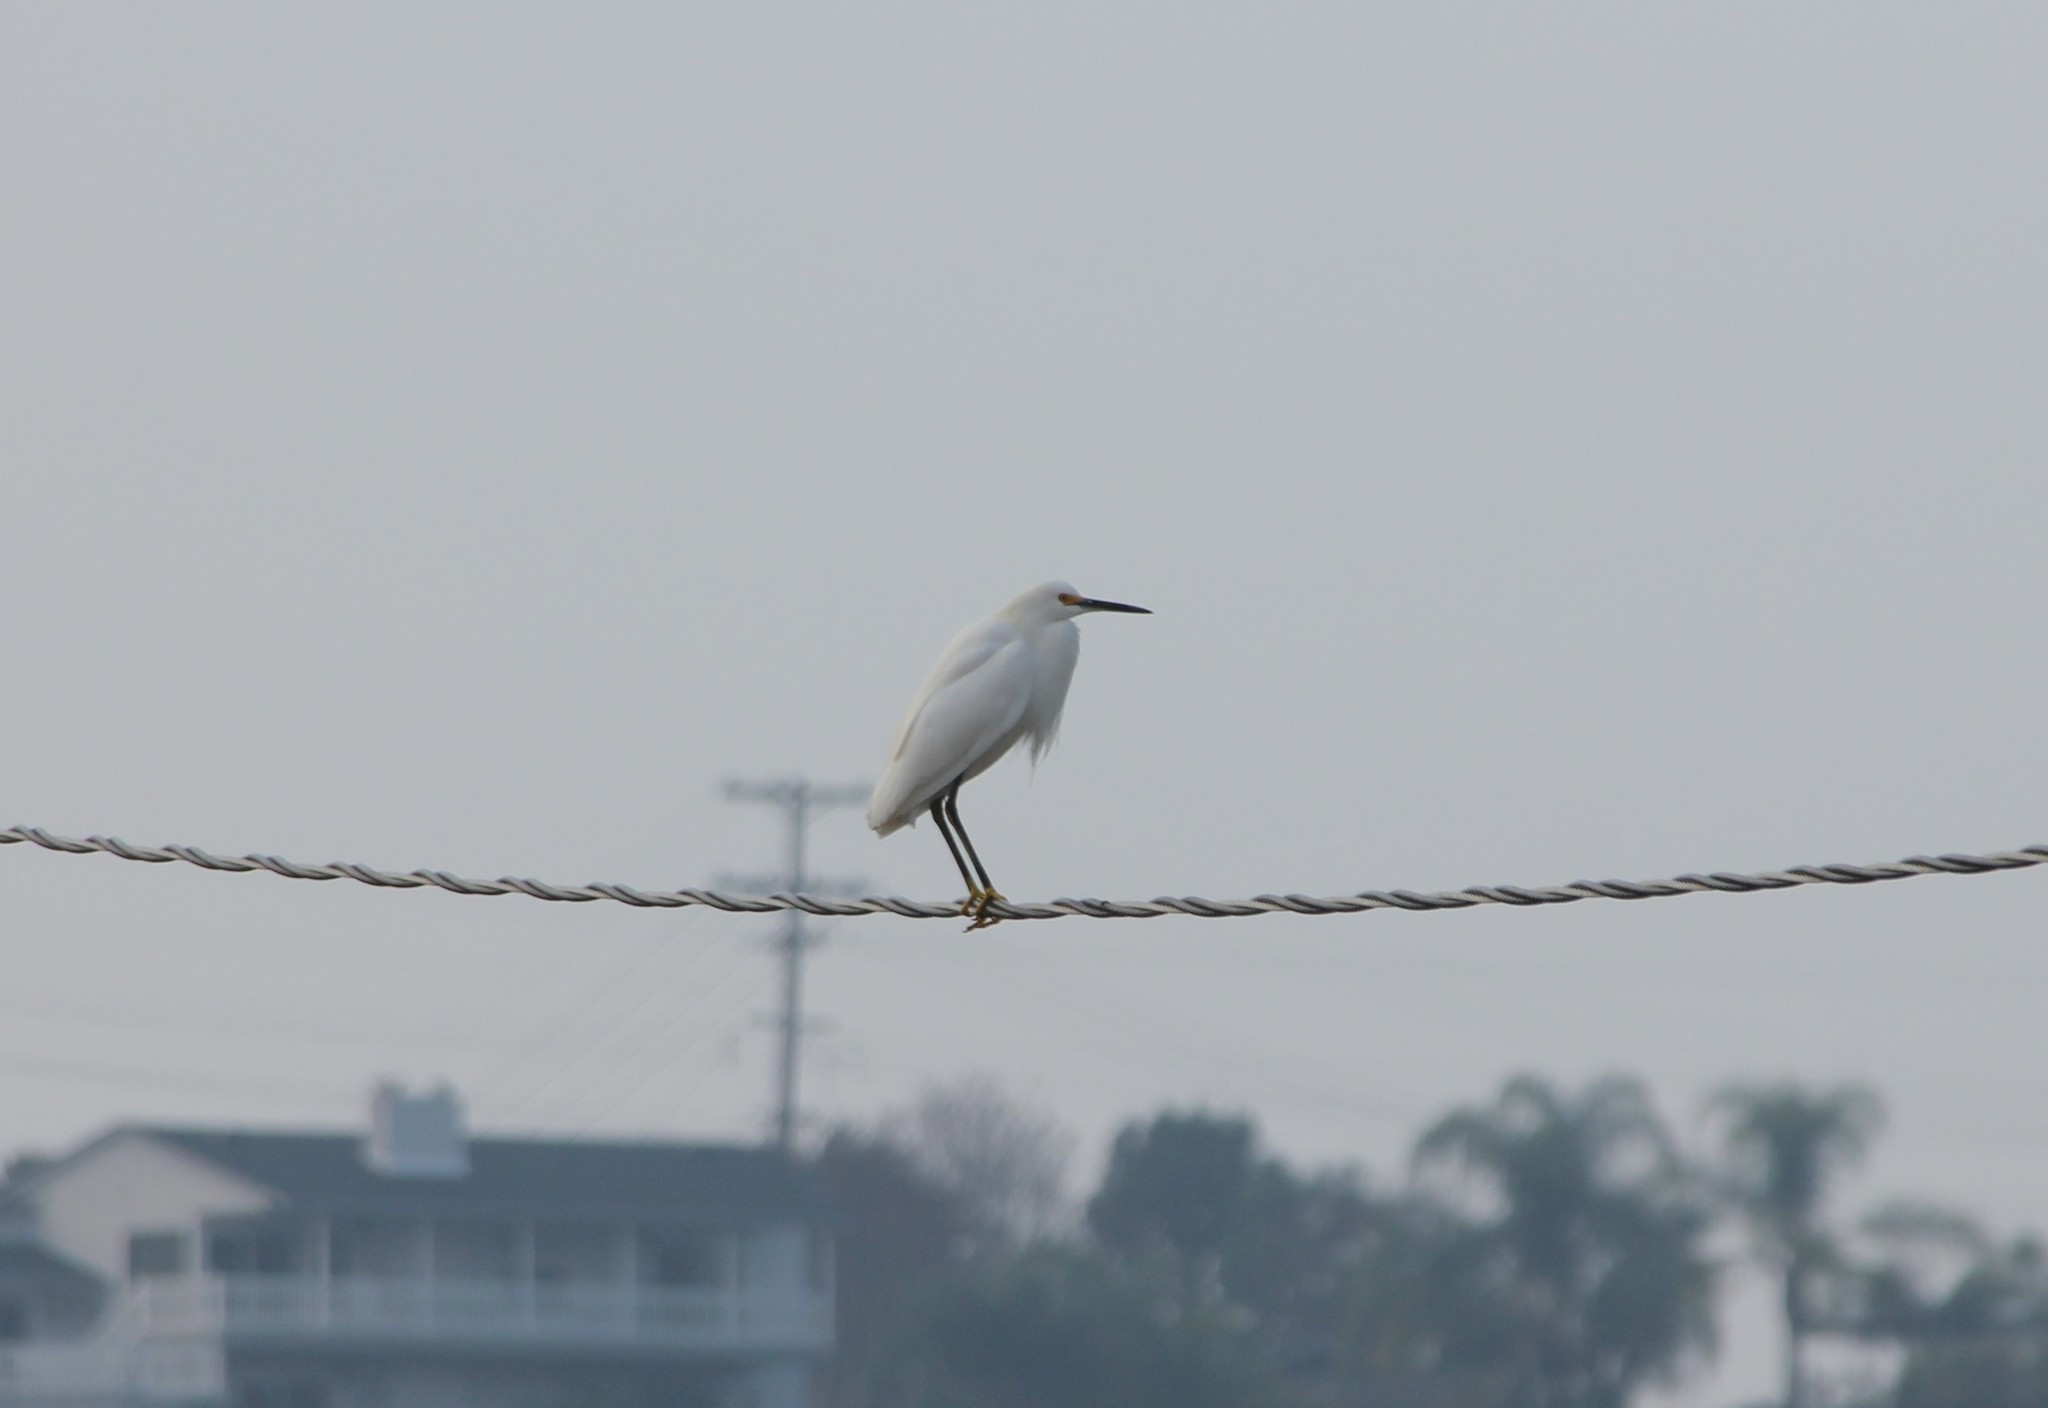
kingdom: Animalia
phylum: Chordata
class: Aves
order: Pelecaniformes
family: Ardeidae
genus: Egretta
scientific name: Egretta thula
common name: Snowy egret
